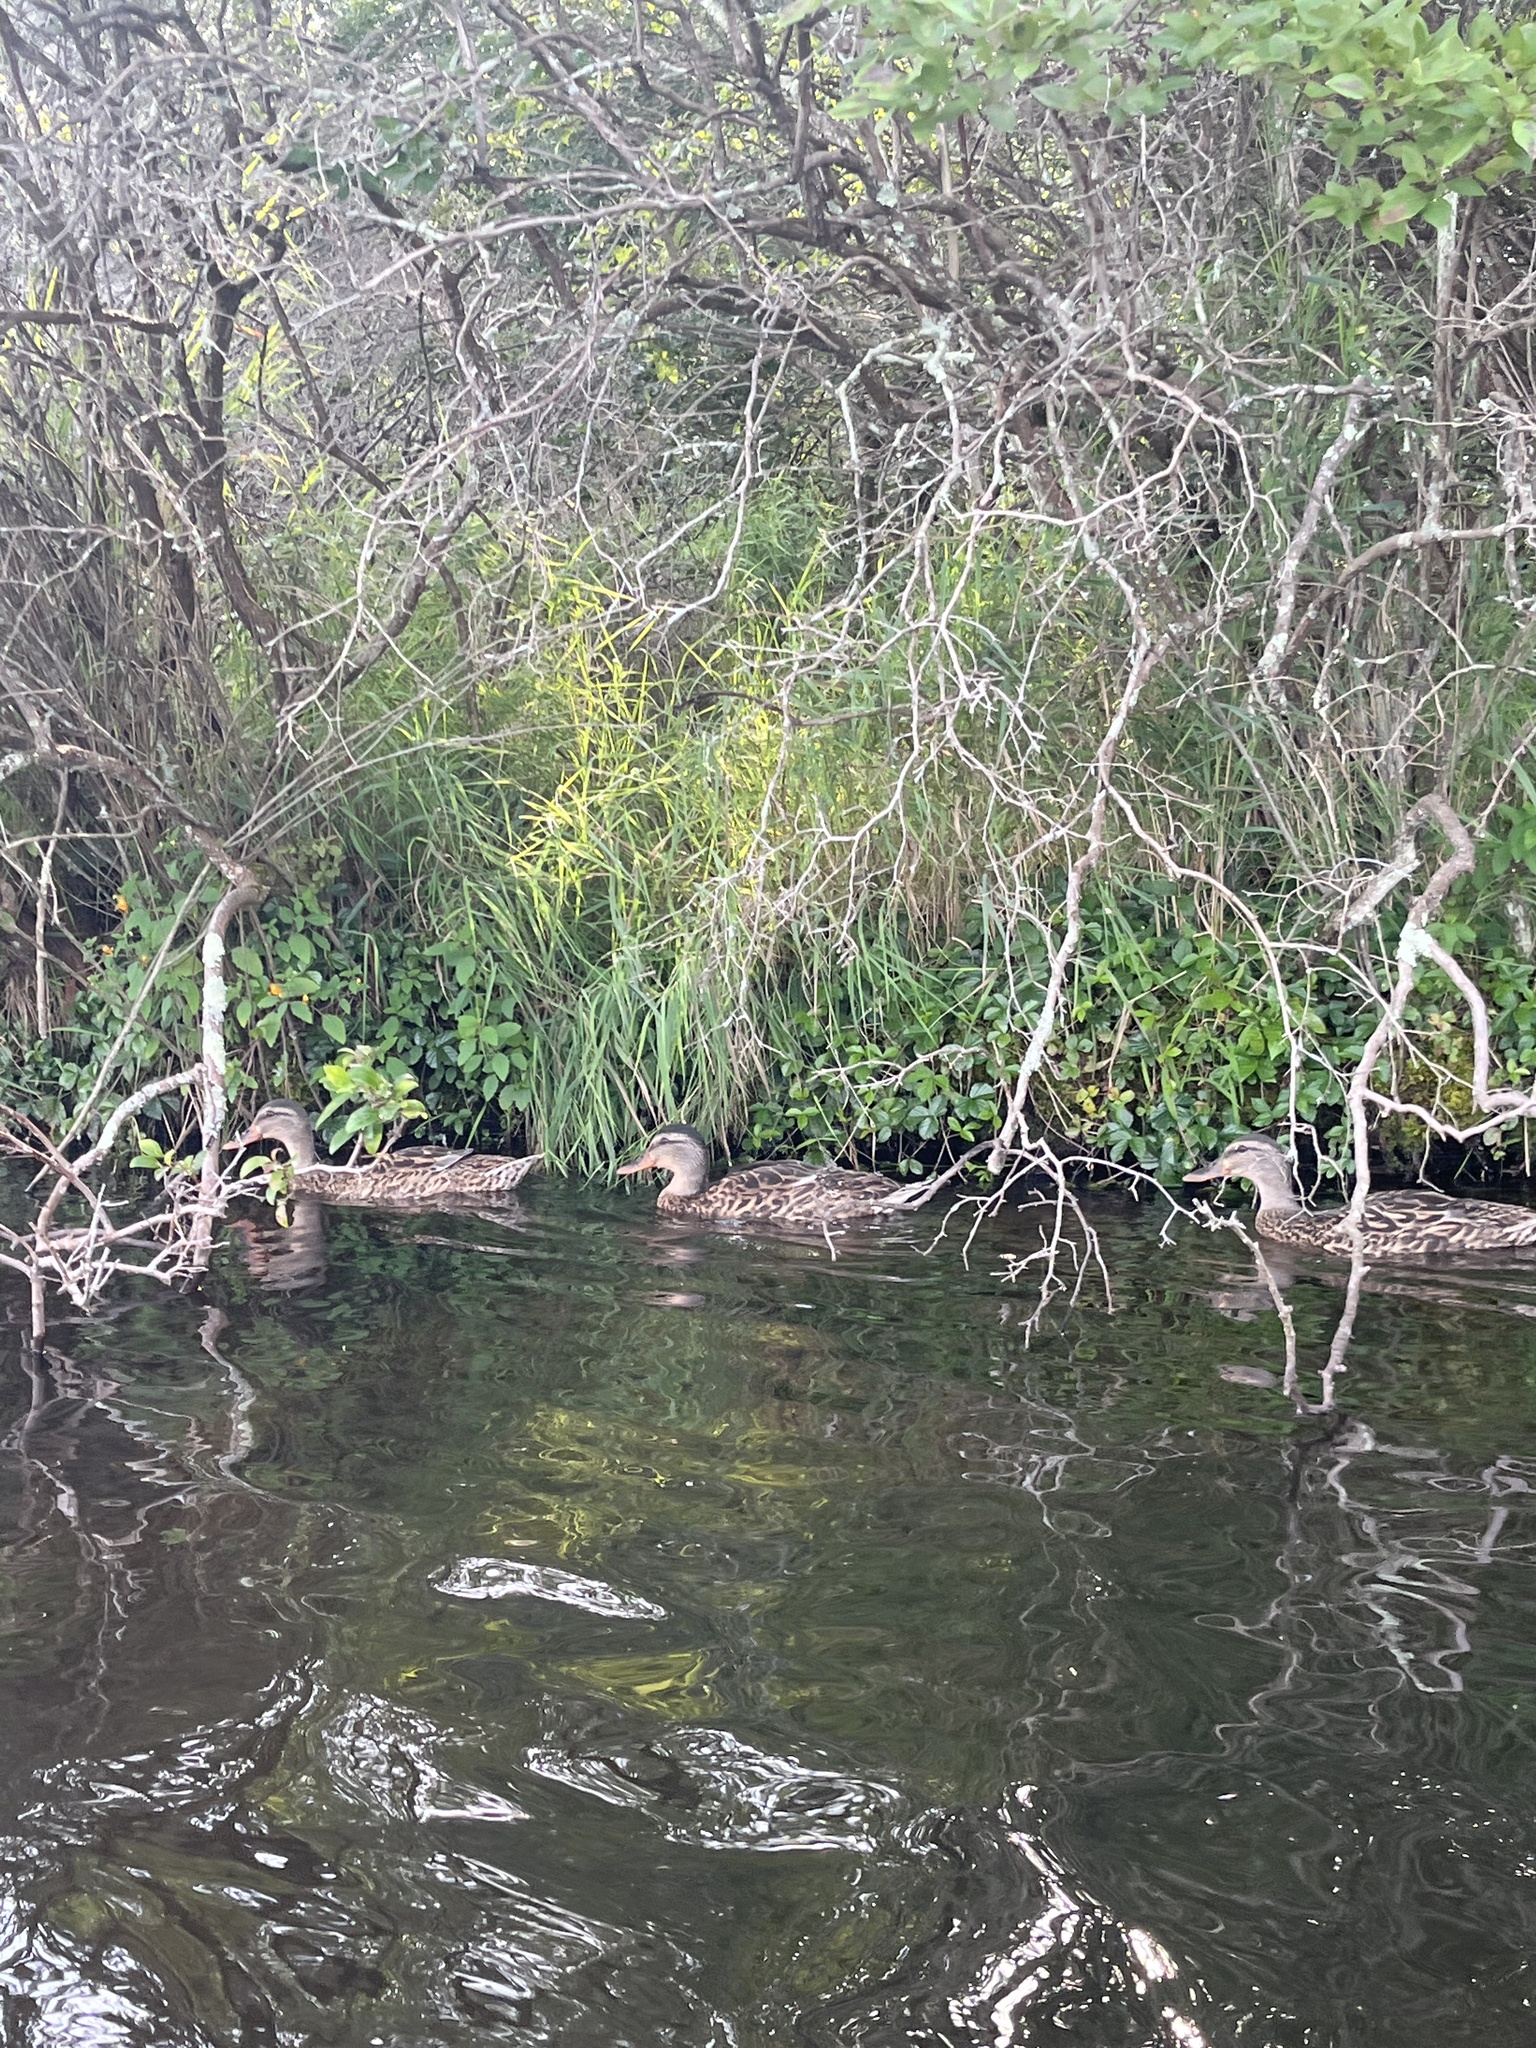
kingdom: Animalia
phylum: Chordata
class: Aves
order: Anseriformes
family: Anatidae
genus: Anas
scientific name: Anas platyrhynchos
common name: Mallard
